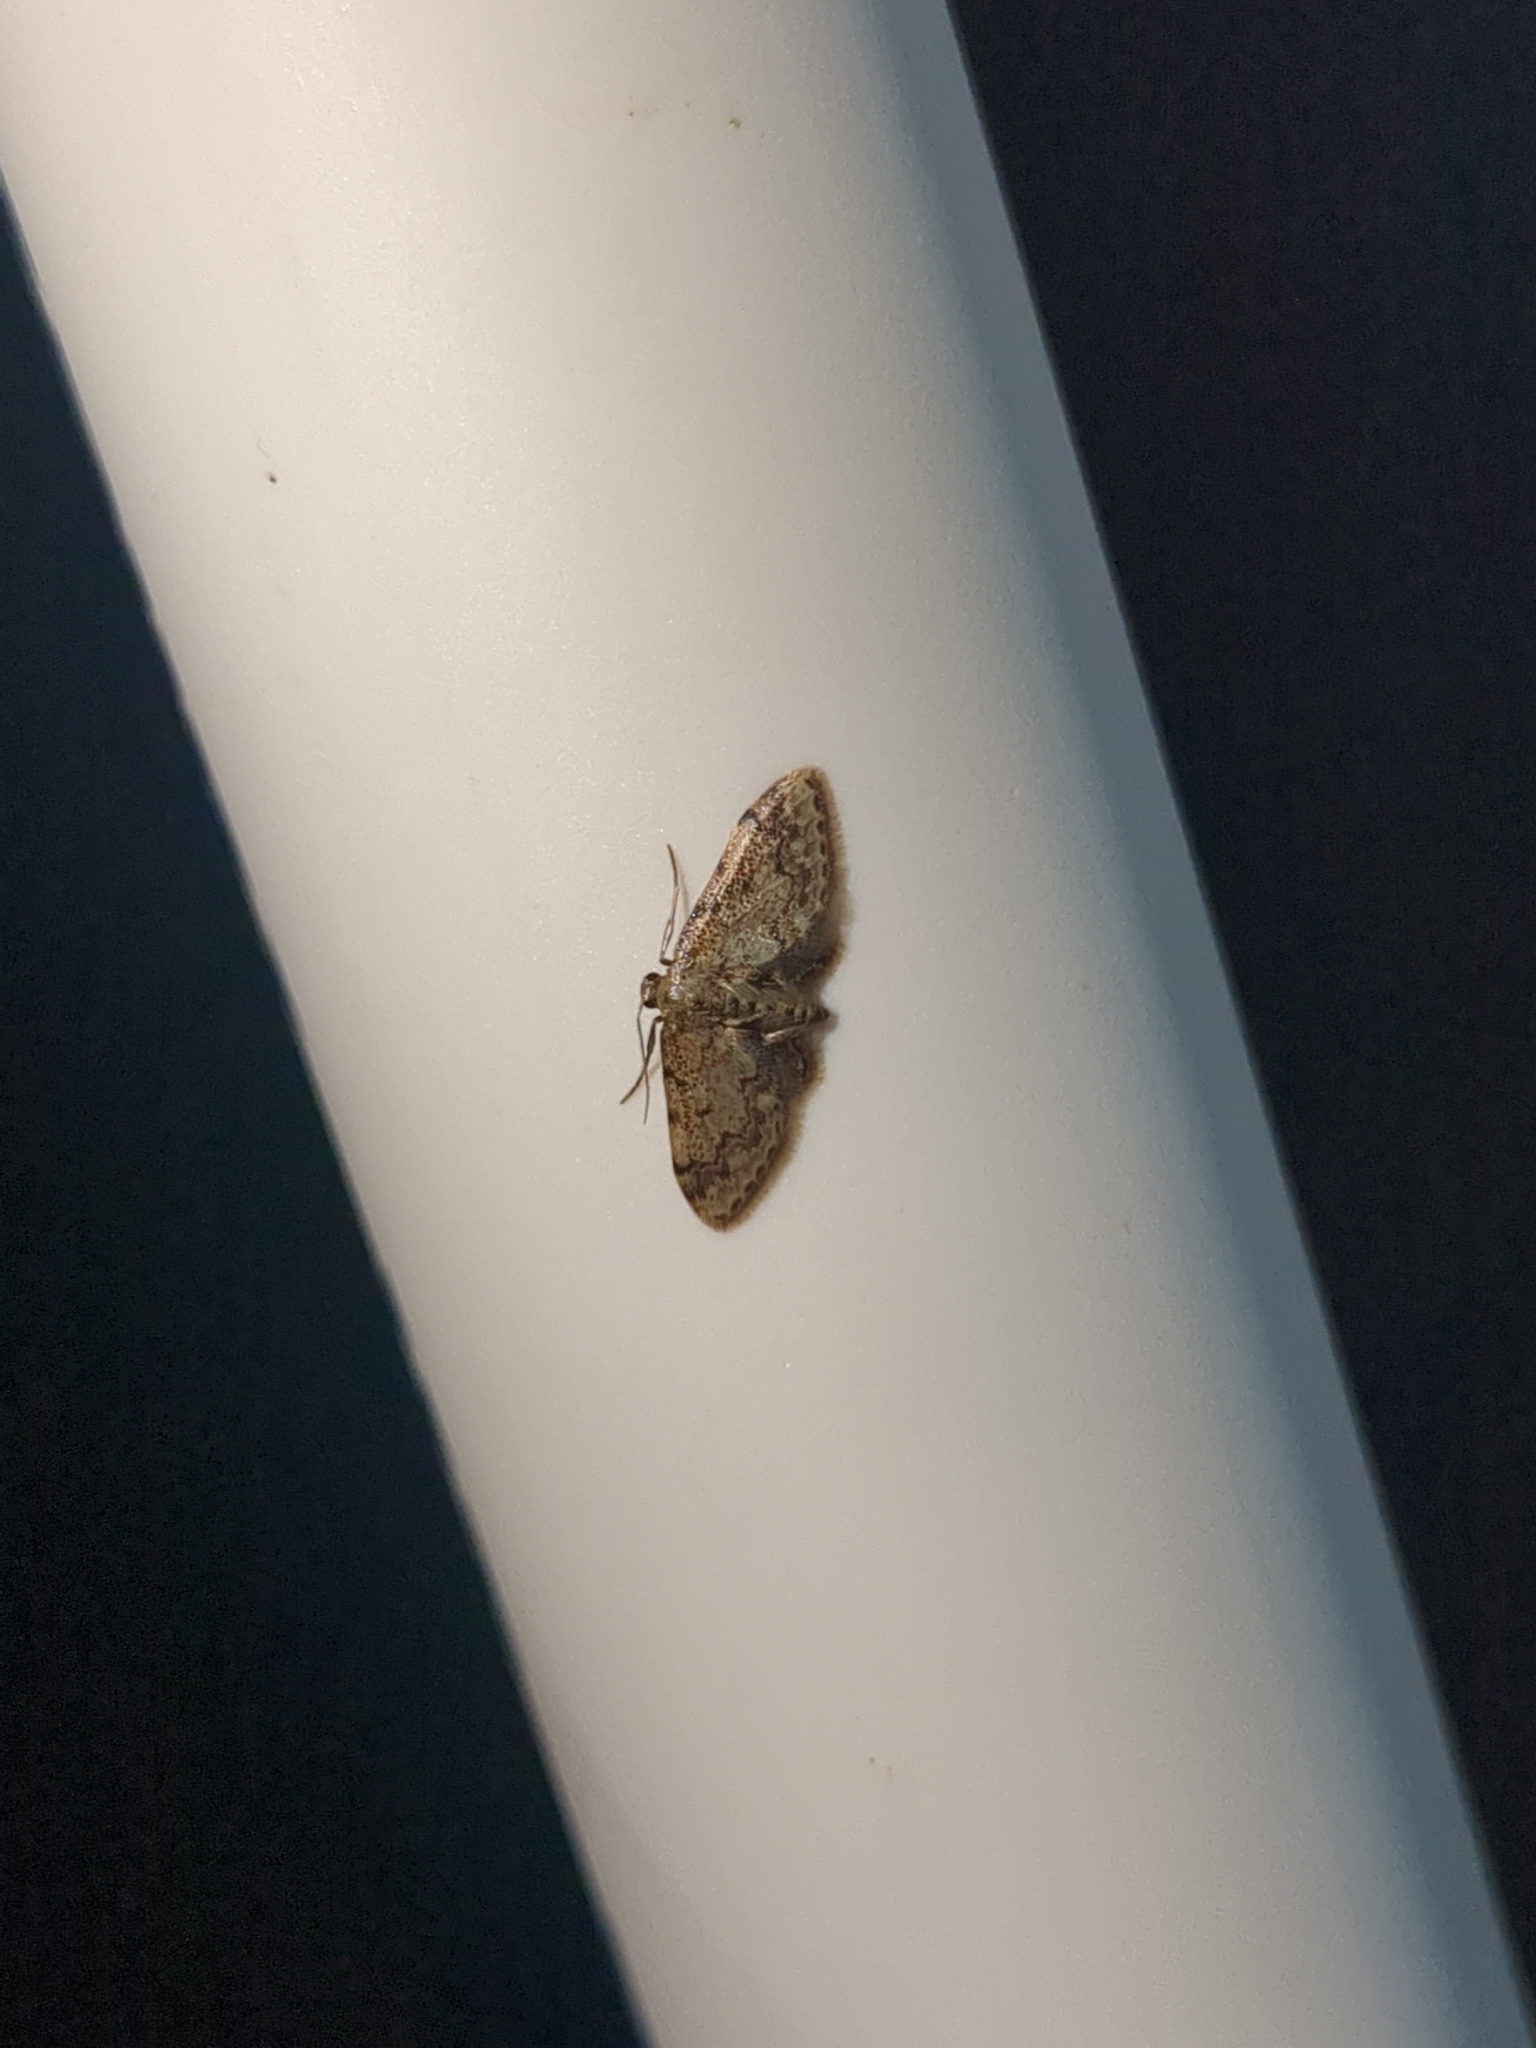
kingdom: Animalia
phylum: Arthropoda
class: Insecta
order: Lepidoptera
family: Geometridae
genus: Idaea
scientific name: Idaea celtima
